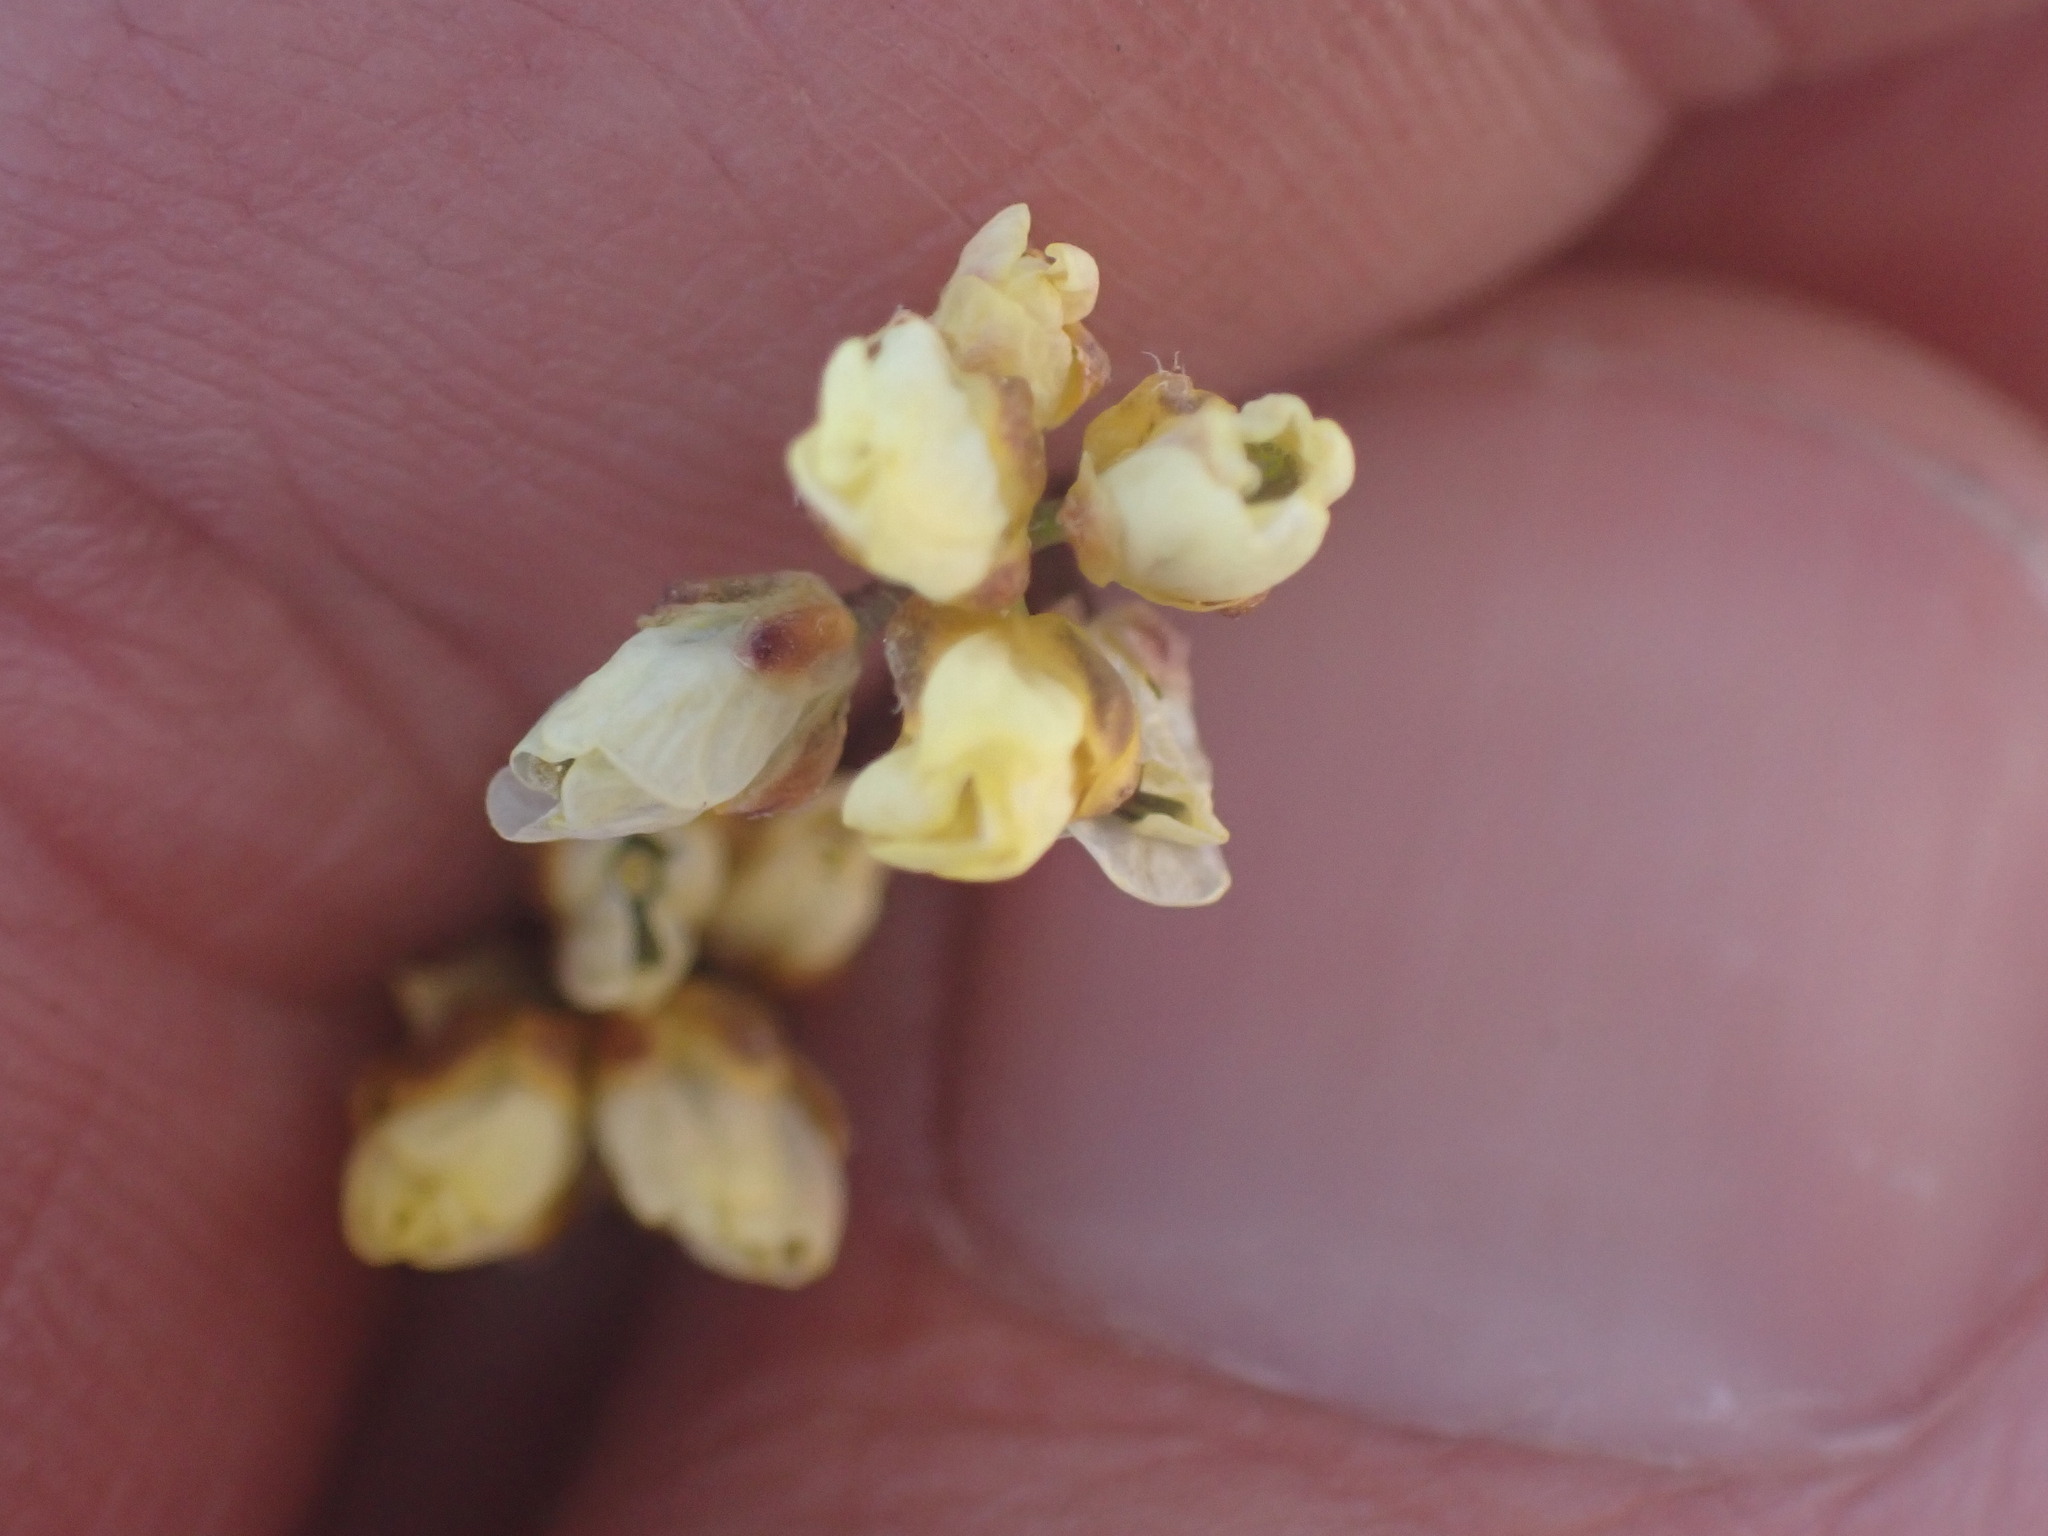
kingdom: Plantae
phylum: Tracheophyta
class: Magnoliopsida
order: Brassicales
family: Brassicaceae
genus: Draba
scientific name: Draba oligosperma
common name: Few-seed draba
